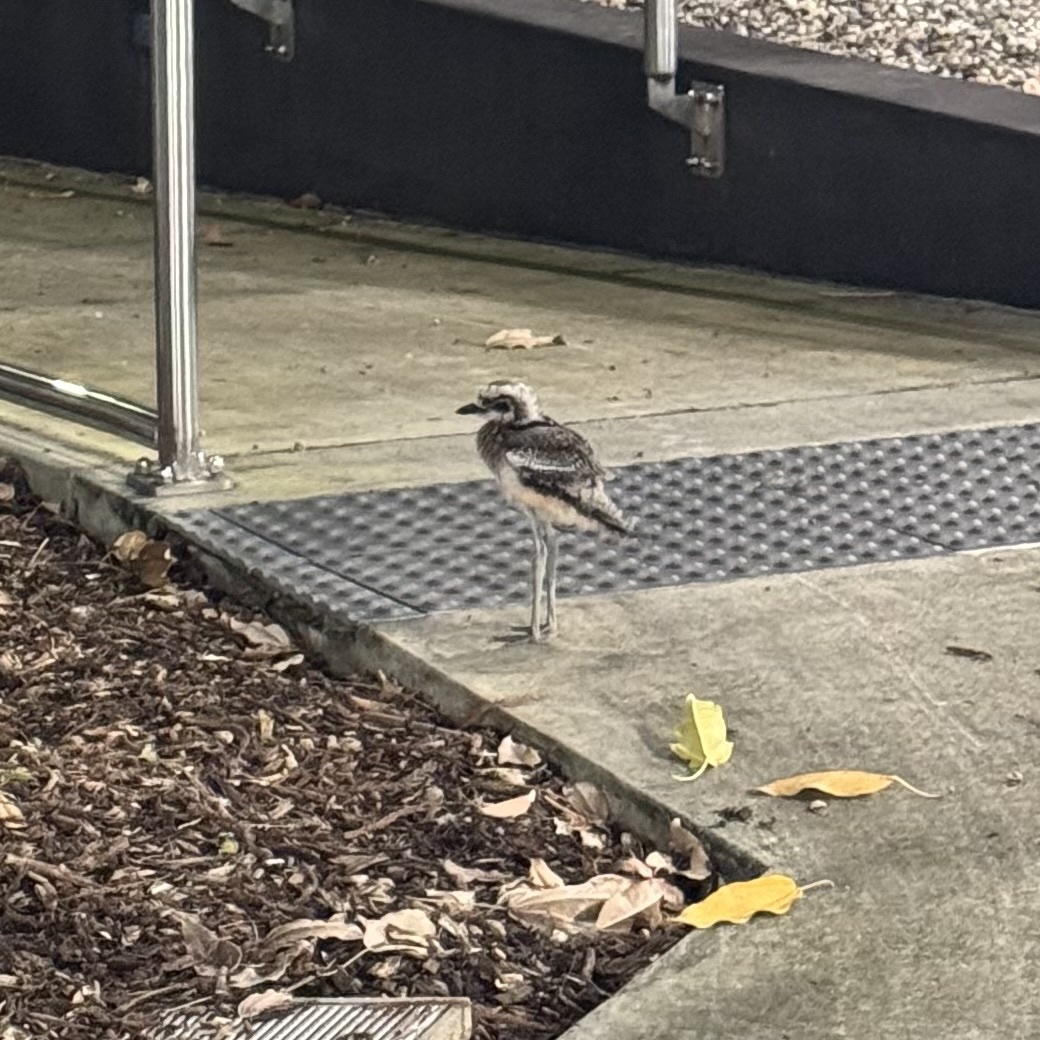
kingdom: Animalia
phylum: Chordata
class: Aves
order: Charadriiformes
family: Burhinidae
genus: Burhinus
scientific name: Burhinus grallarius
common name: Bush stone-curlew
